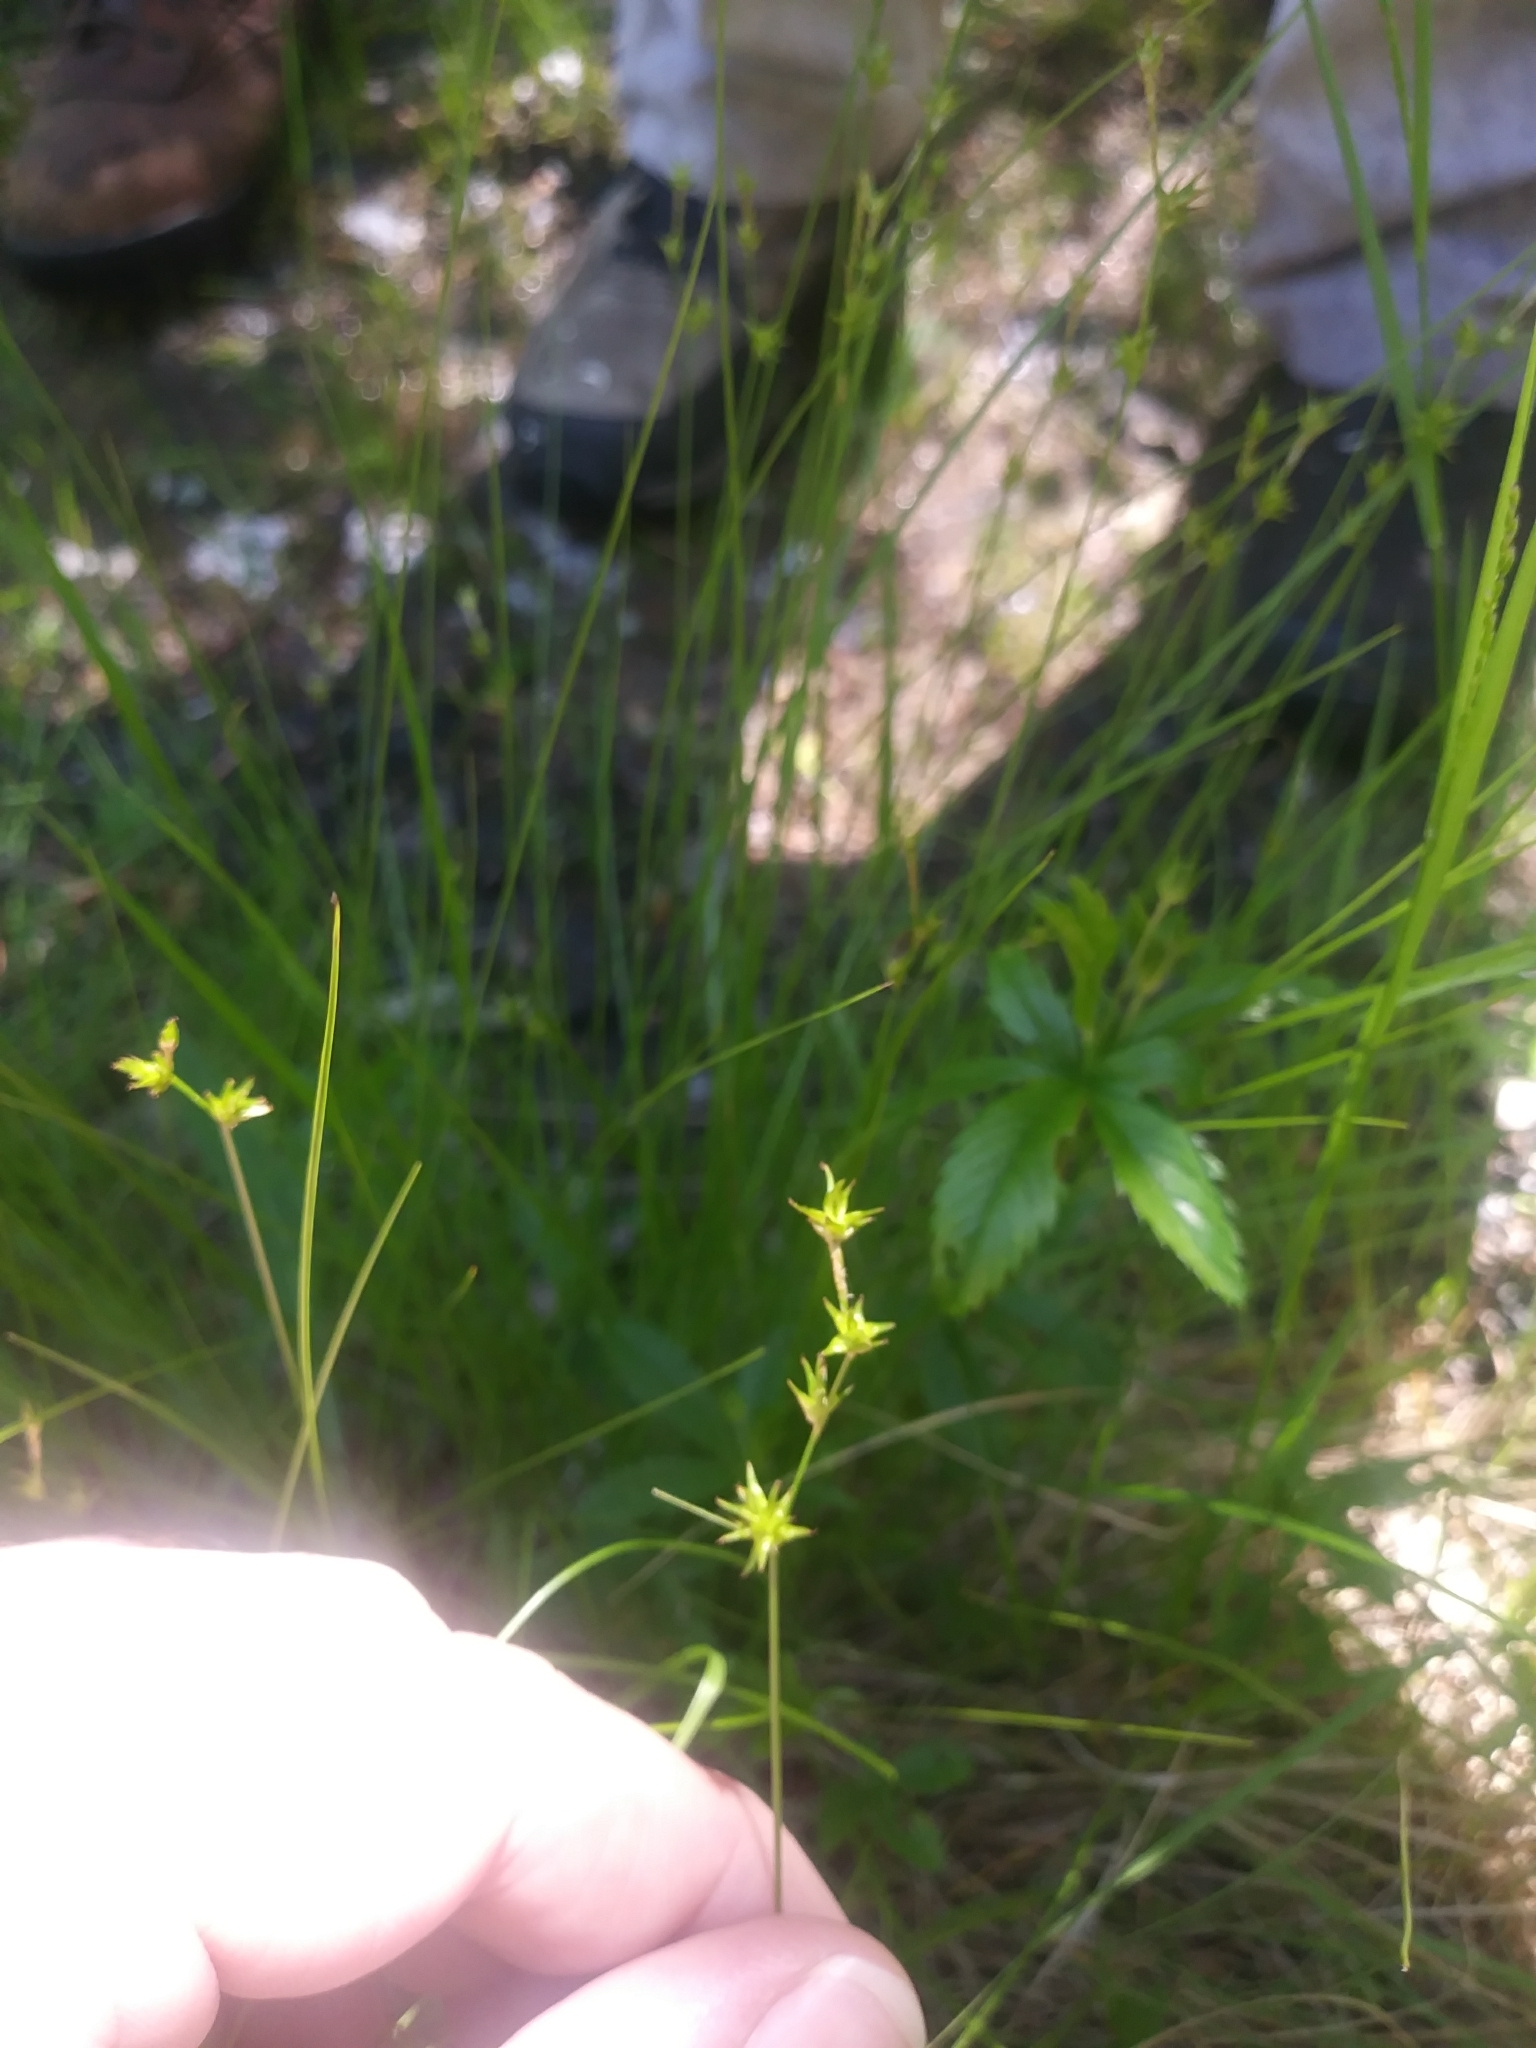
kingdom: Plantae
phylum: Tracheophyta
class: Liliopsida
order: Poales
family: Cyperaceae
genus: Carex
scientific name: Carex echinata
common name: Star sedge
